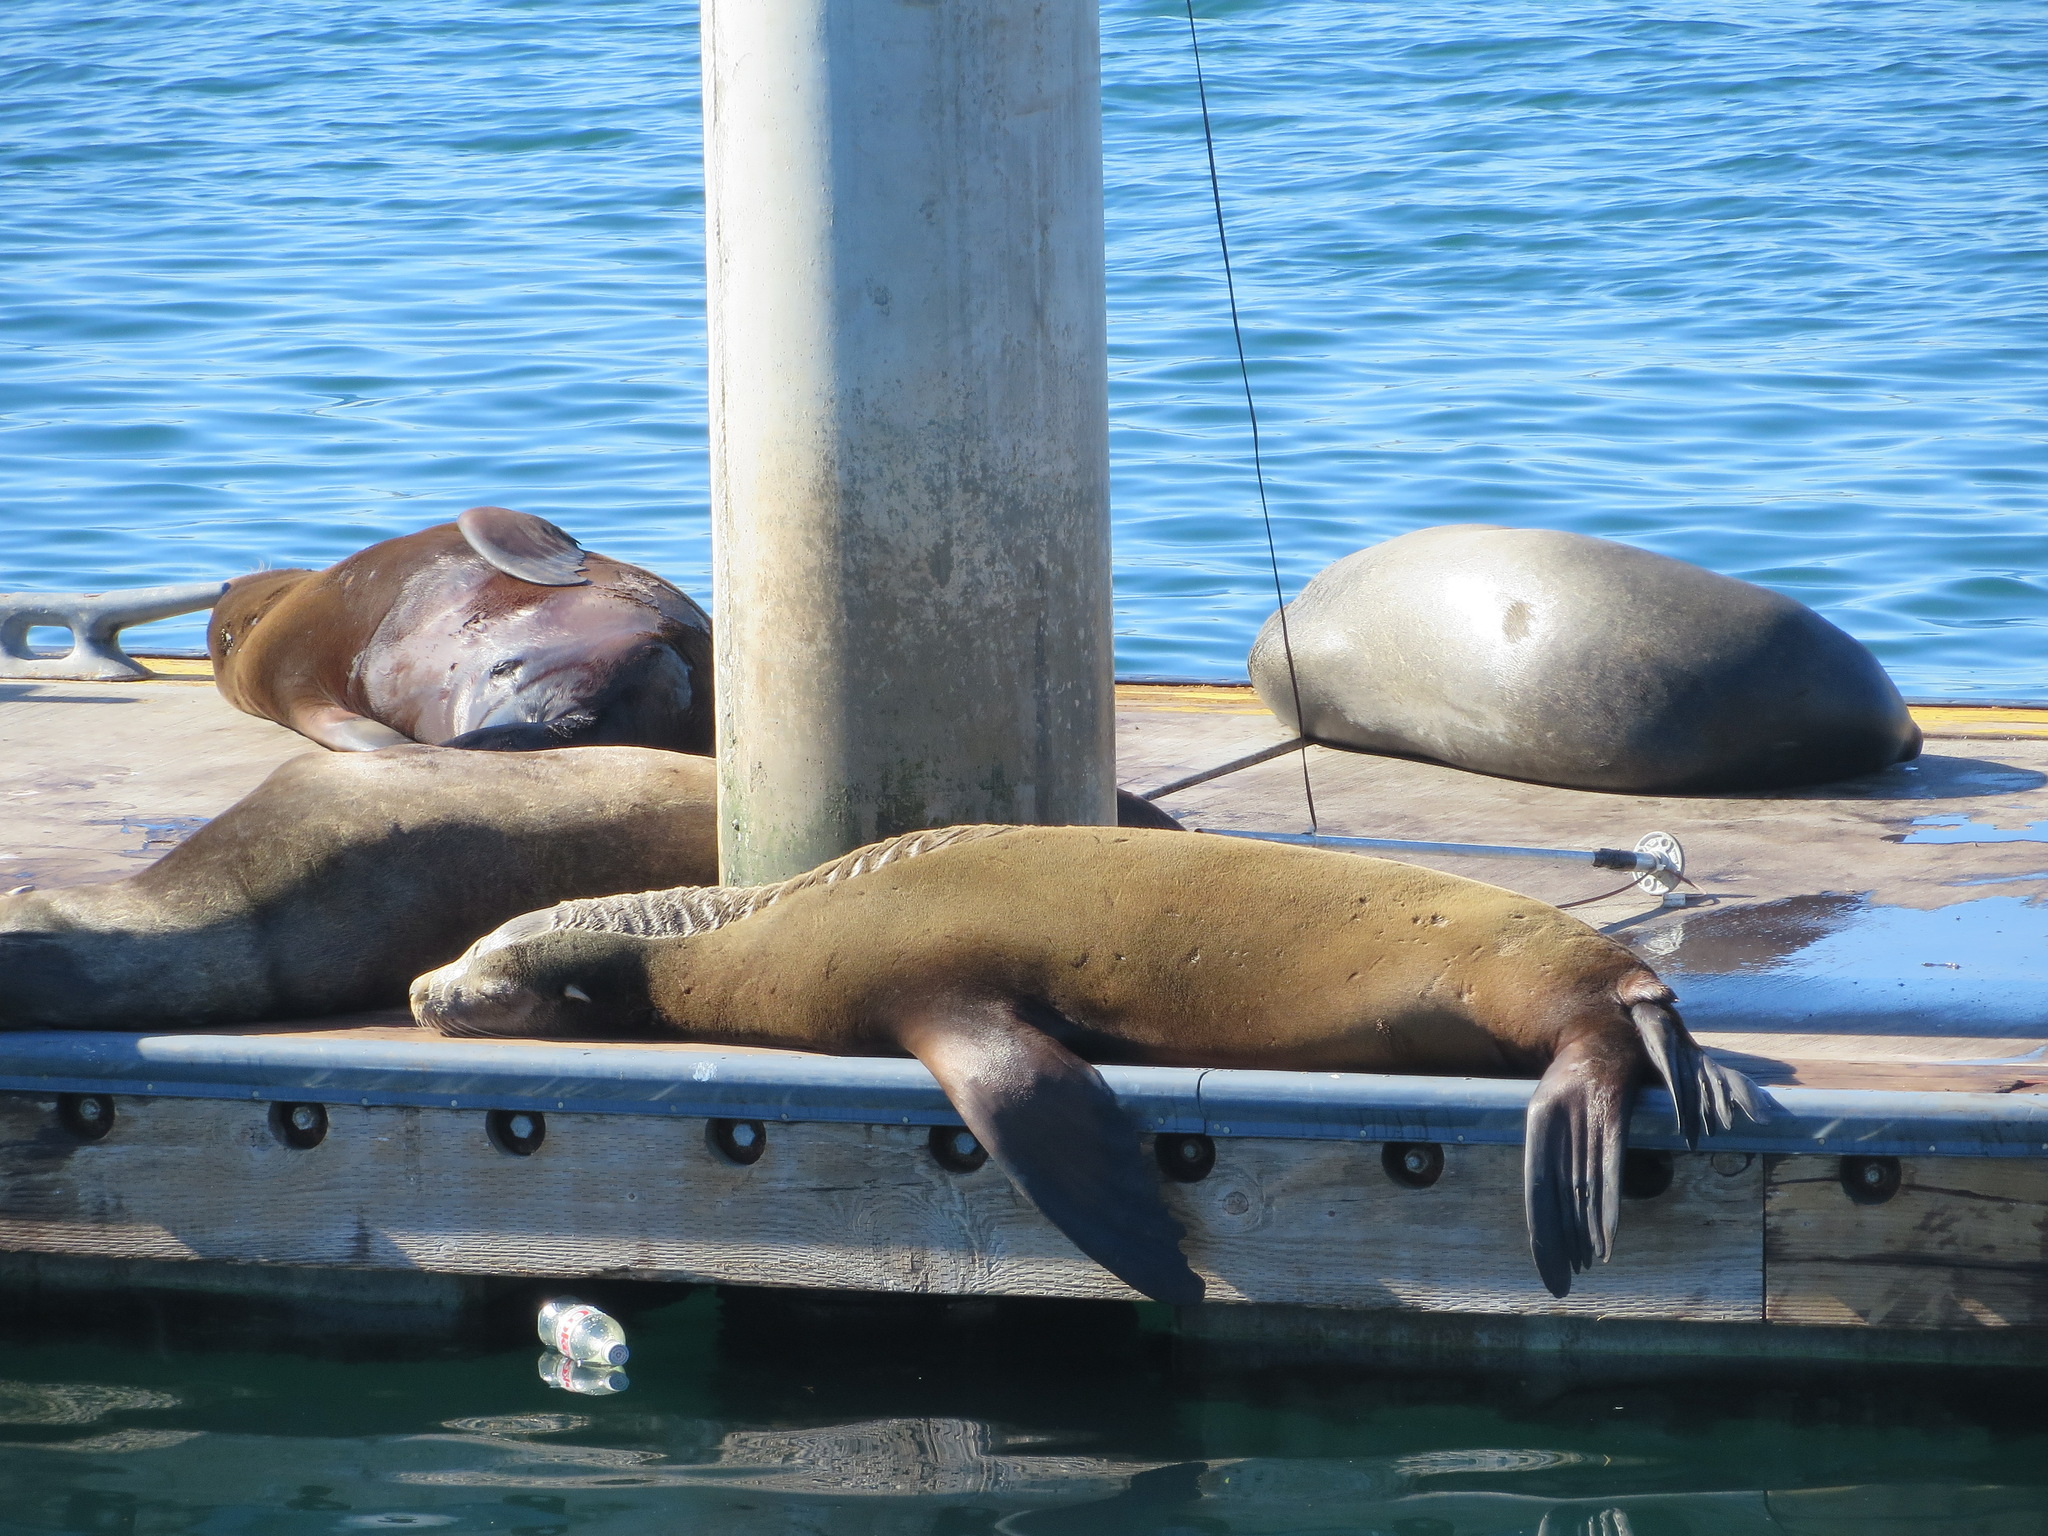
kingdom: Animalia
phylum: Chordata
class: Mammalia
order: Carnivora
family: Otariidae
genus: Zalophus
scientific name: Zalophus californianus
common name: California sea lion
